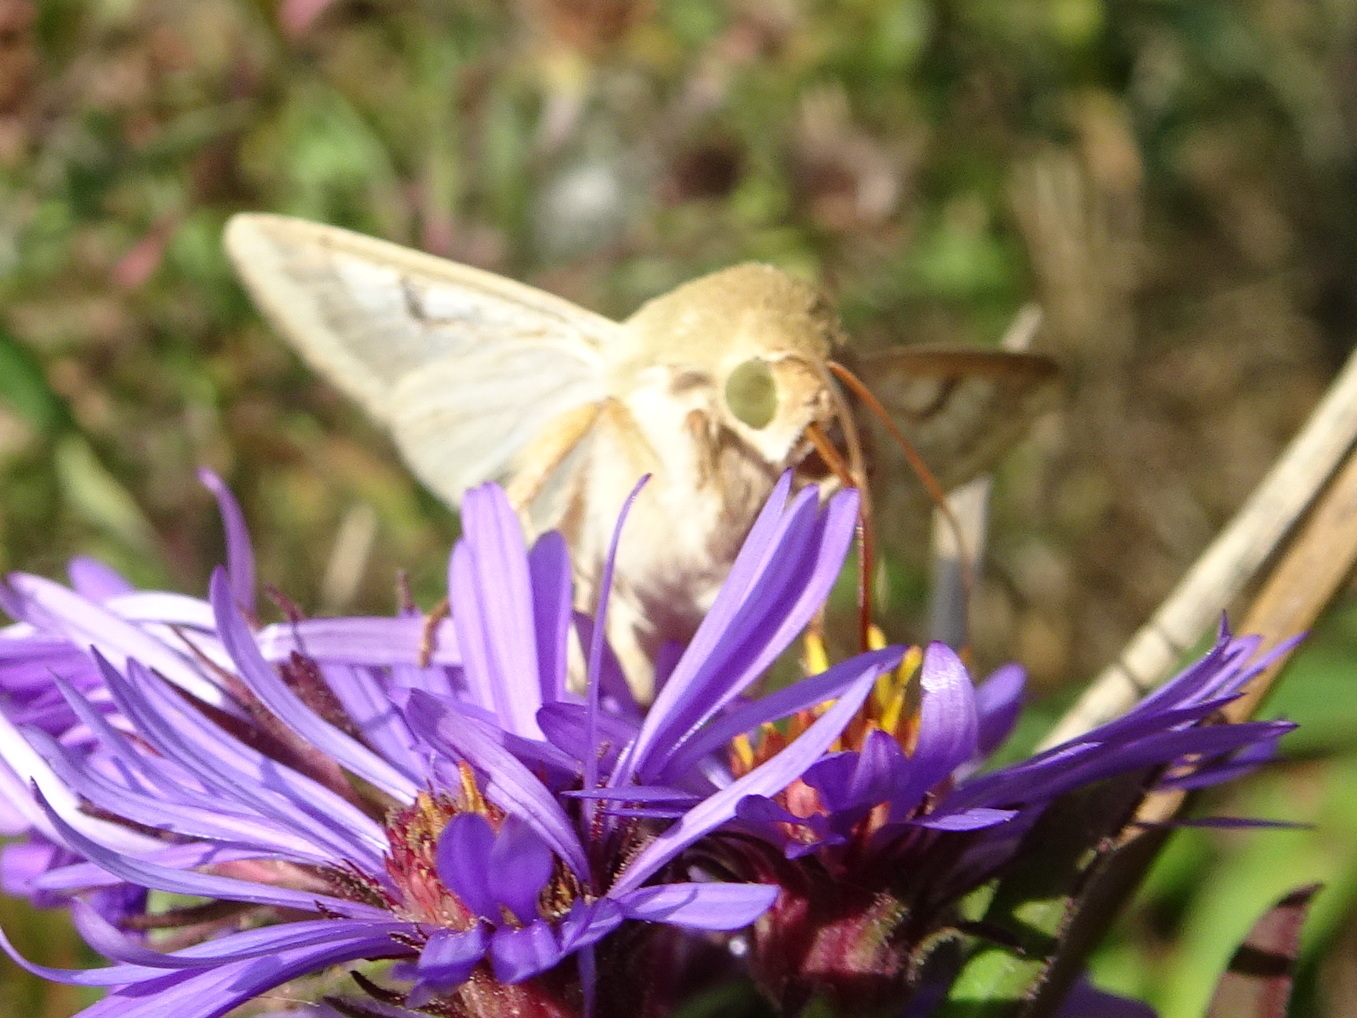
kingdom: Animalia
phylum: Arthropoda
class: Insecta
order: Lepidoptera
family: Noctuidae
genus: Helicoverpa
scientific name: Helicoverpa zea
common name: Bollworm
